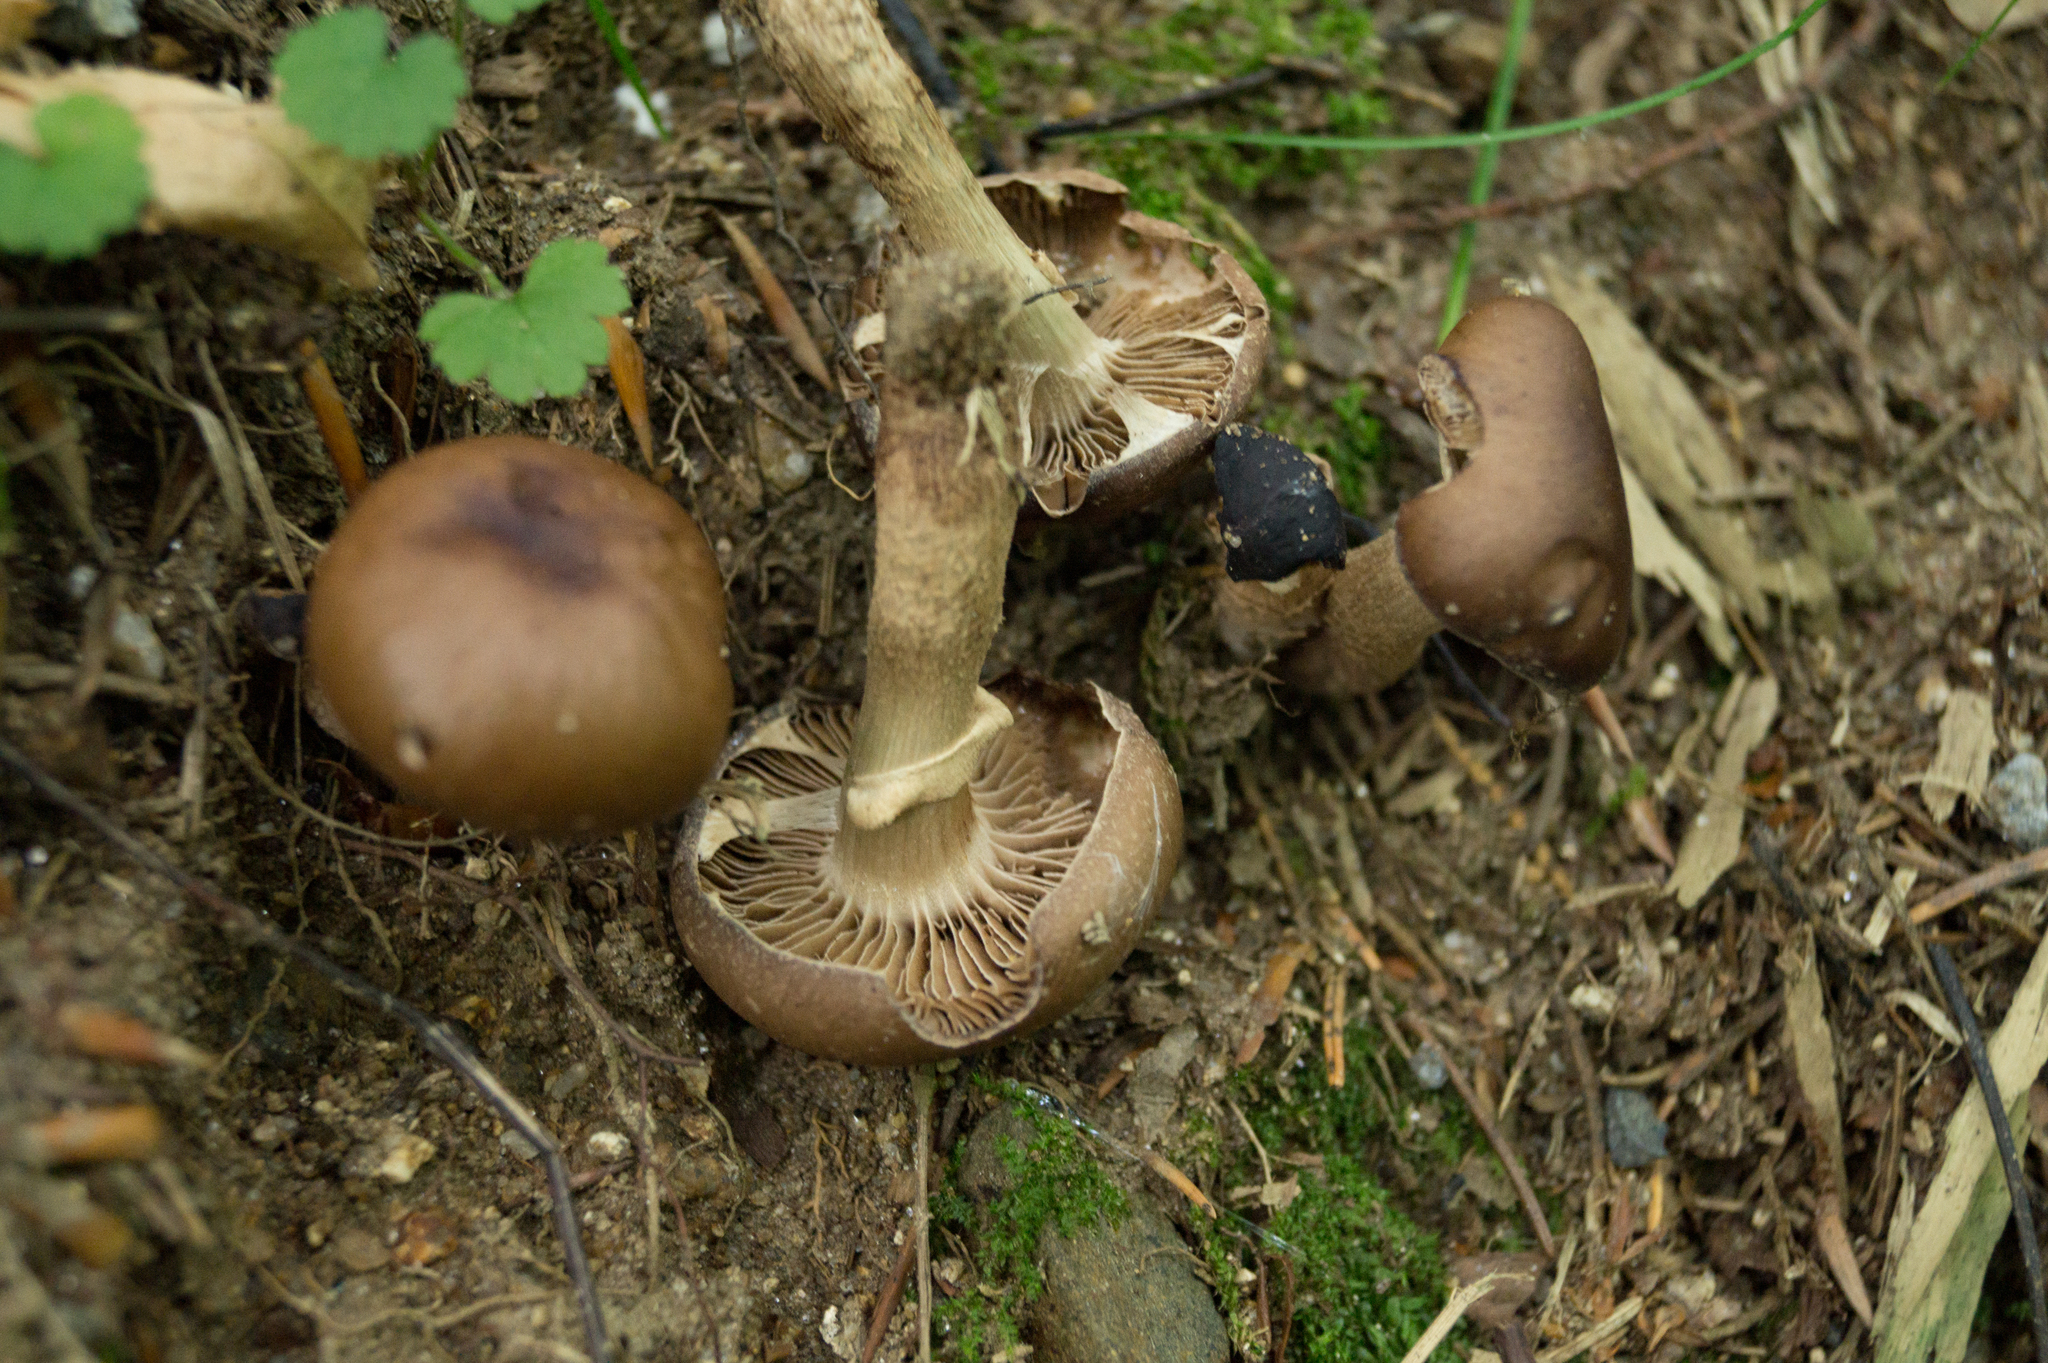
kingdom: Fungi
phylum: Basidiomycota
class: Agaricomycetes
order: Agaricales
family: Tubariaceae
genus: Cyclocybe
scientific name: Cyclocybe erebia
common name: Dark fieldcap
